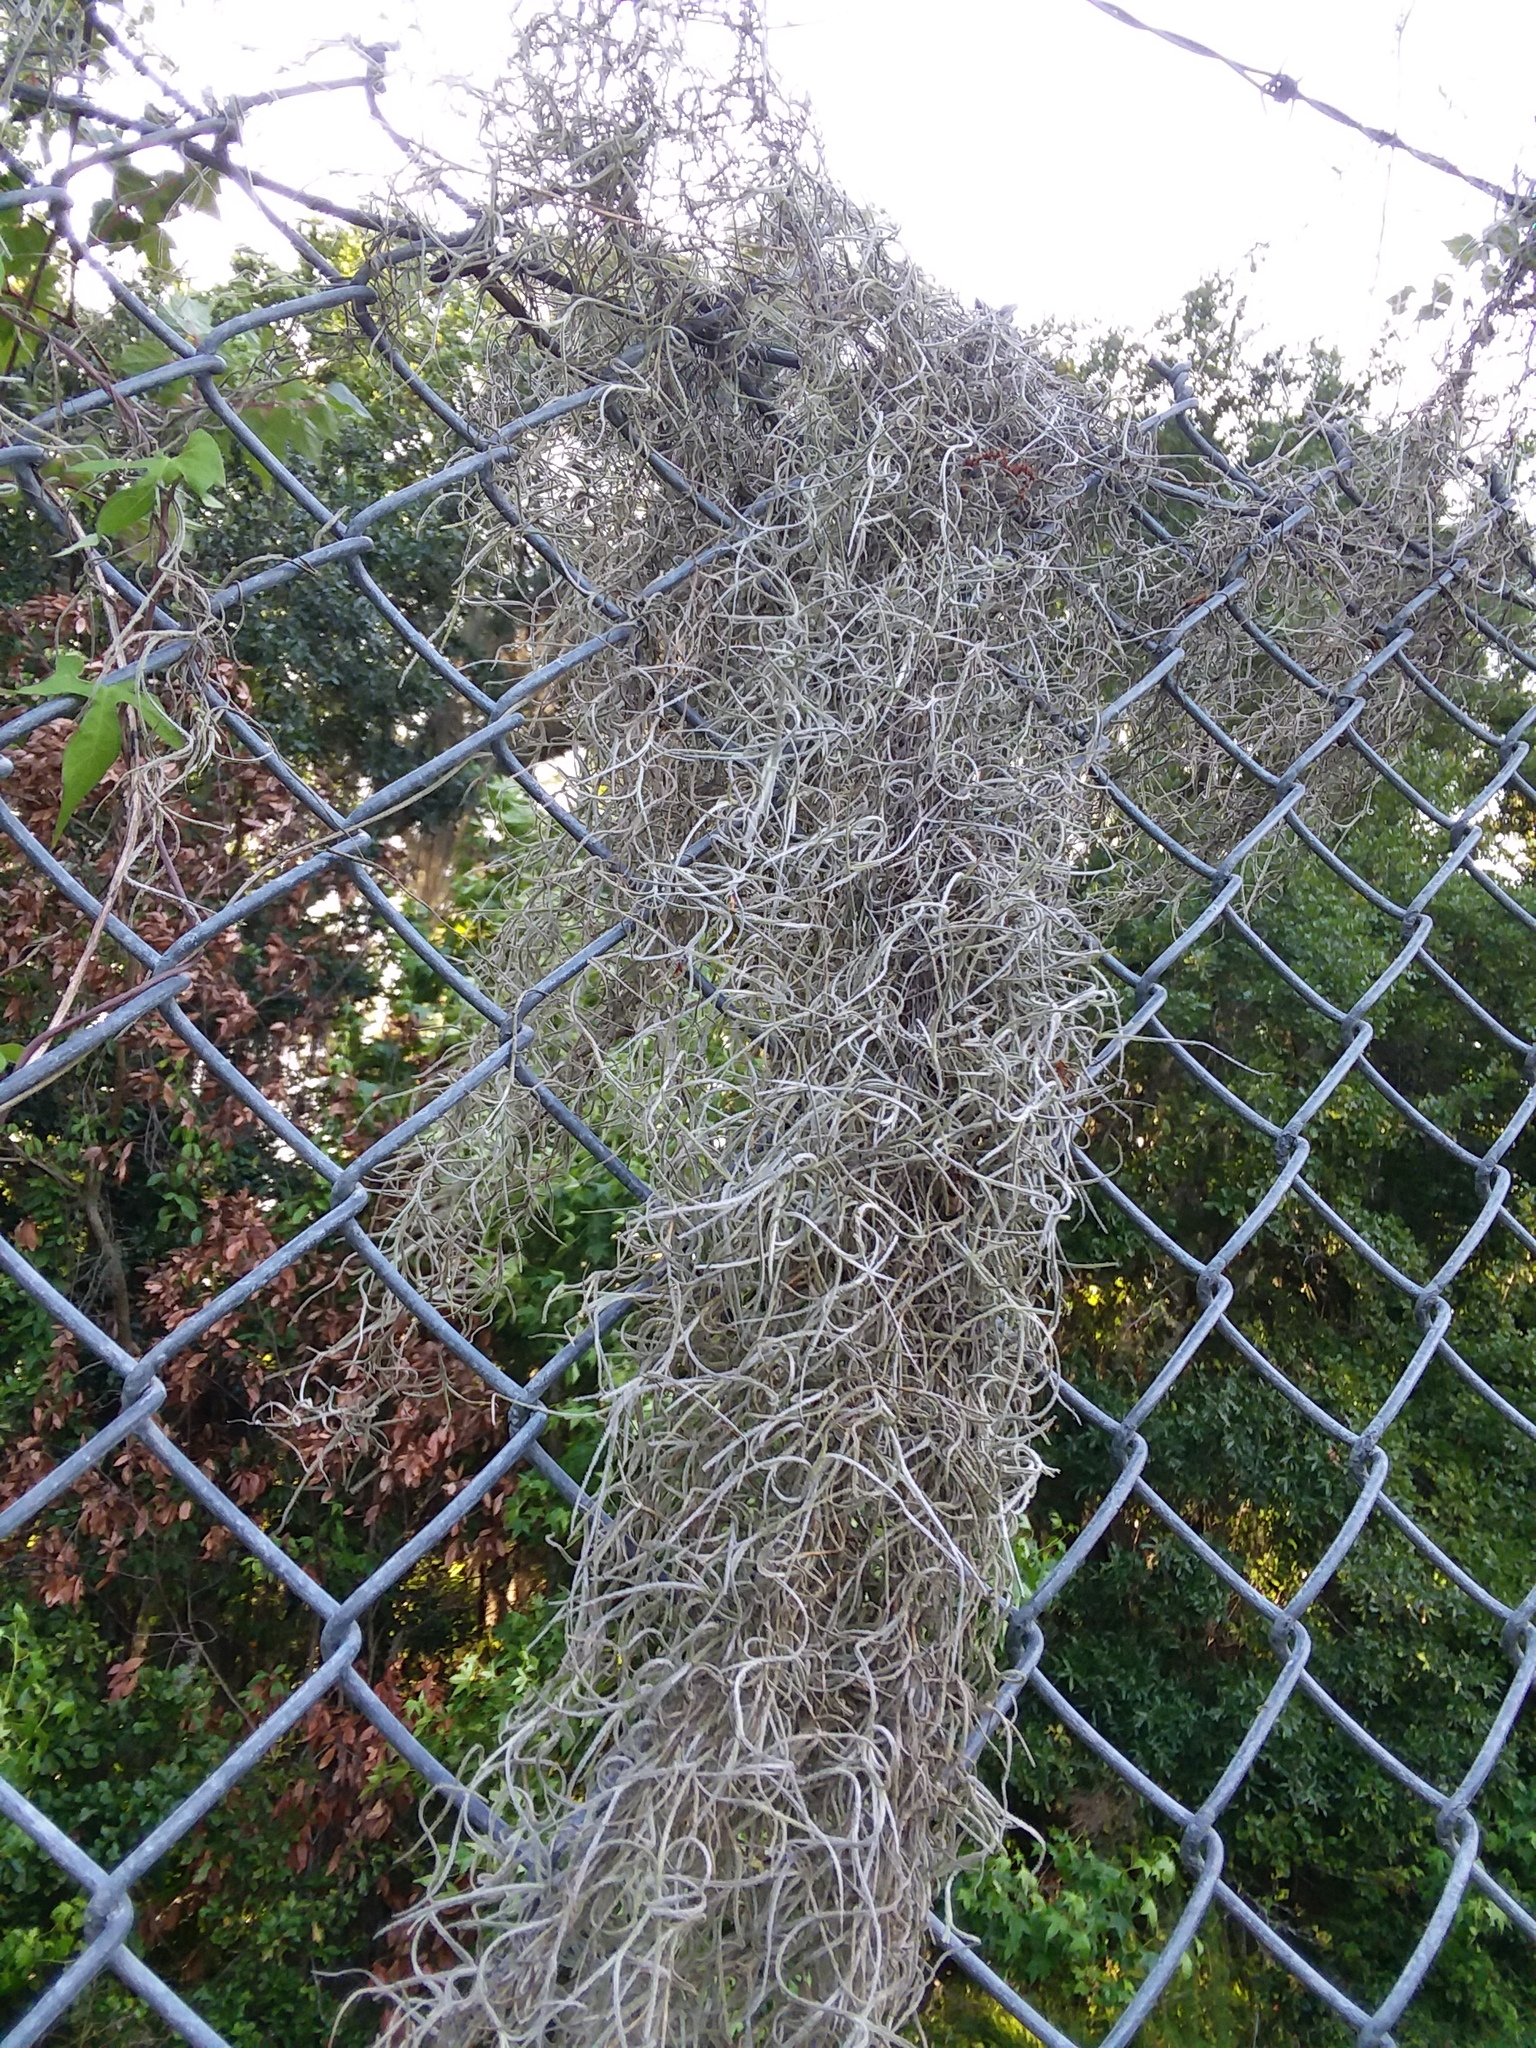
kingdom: Plantae
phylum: Tracheophyta
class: Liliopsida
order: Poales
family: Bromeliaceae
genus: Tillandsia
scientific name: Tillandsia usneoides
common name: Spanish moss
